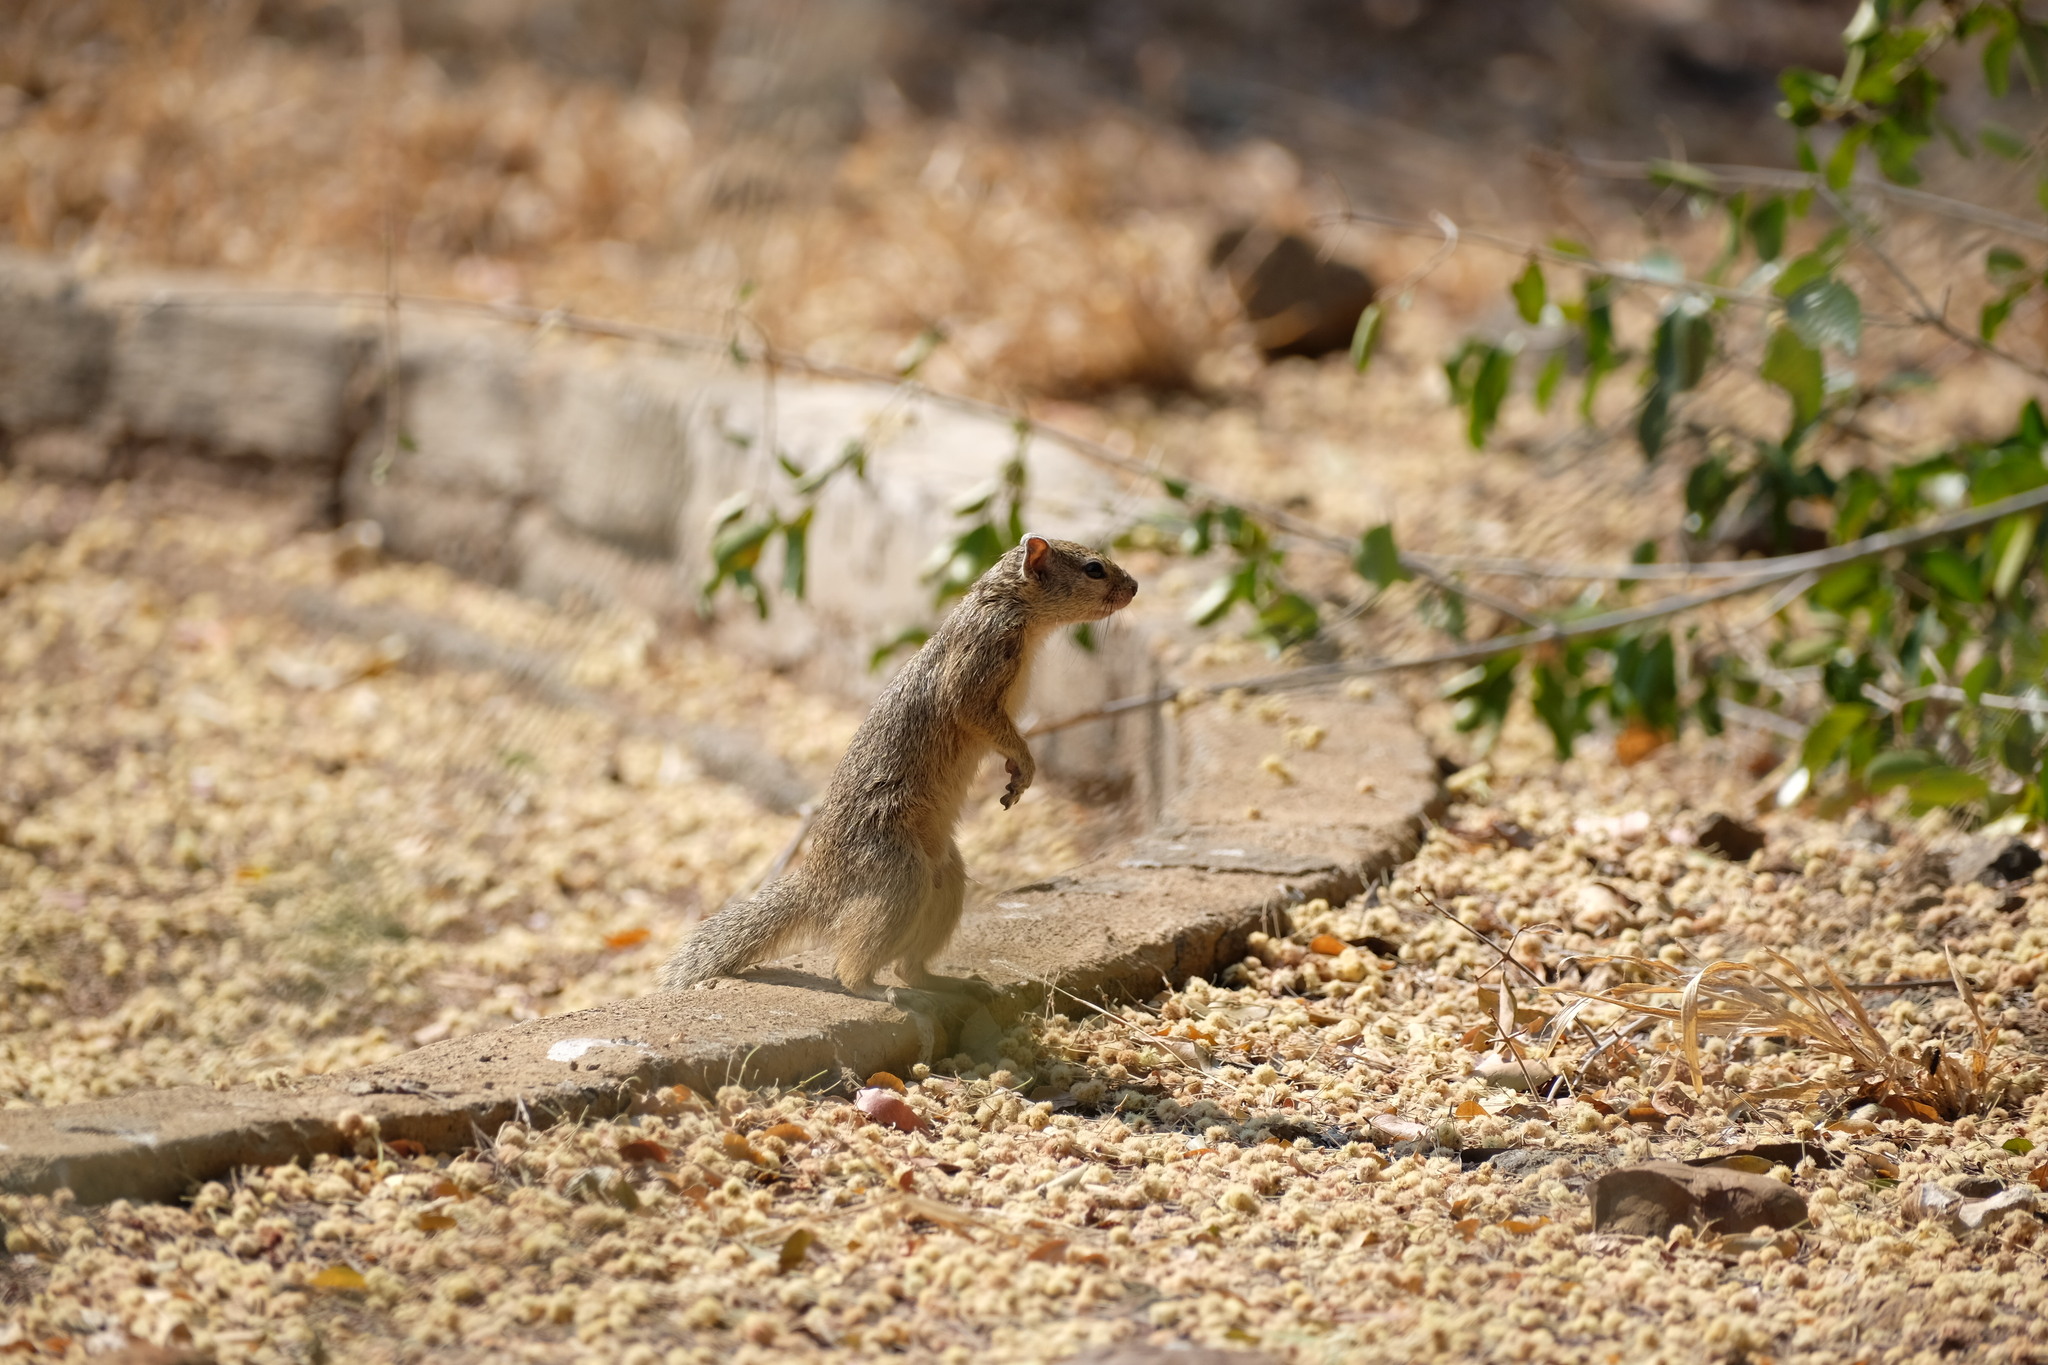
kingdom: Animalia
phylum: Chordata
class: Mammalia
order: Rodentia
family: Sciuridae
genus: Paraxerus
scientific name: Paraxerus cepapi
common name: Smith's bush squirrel
